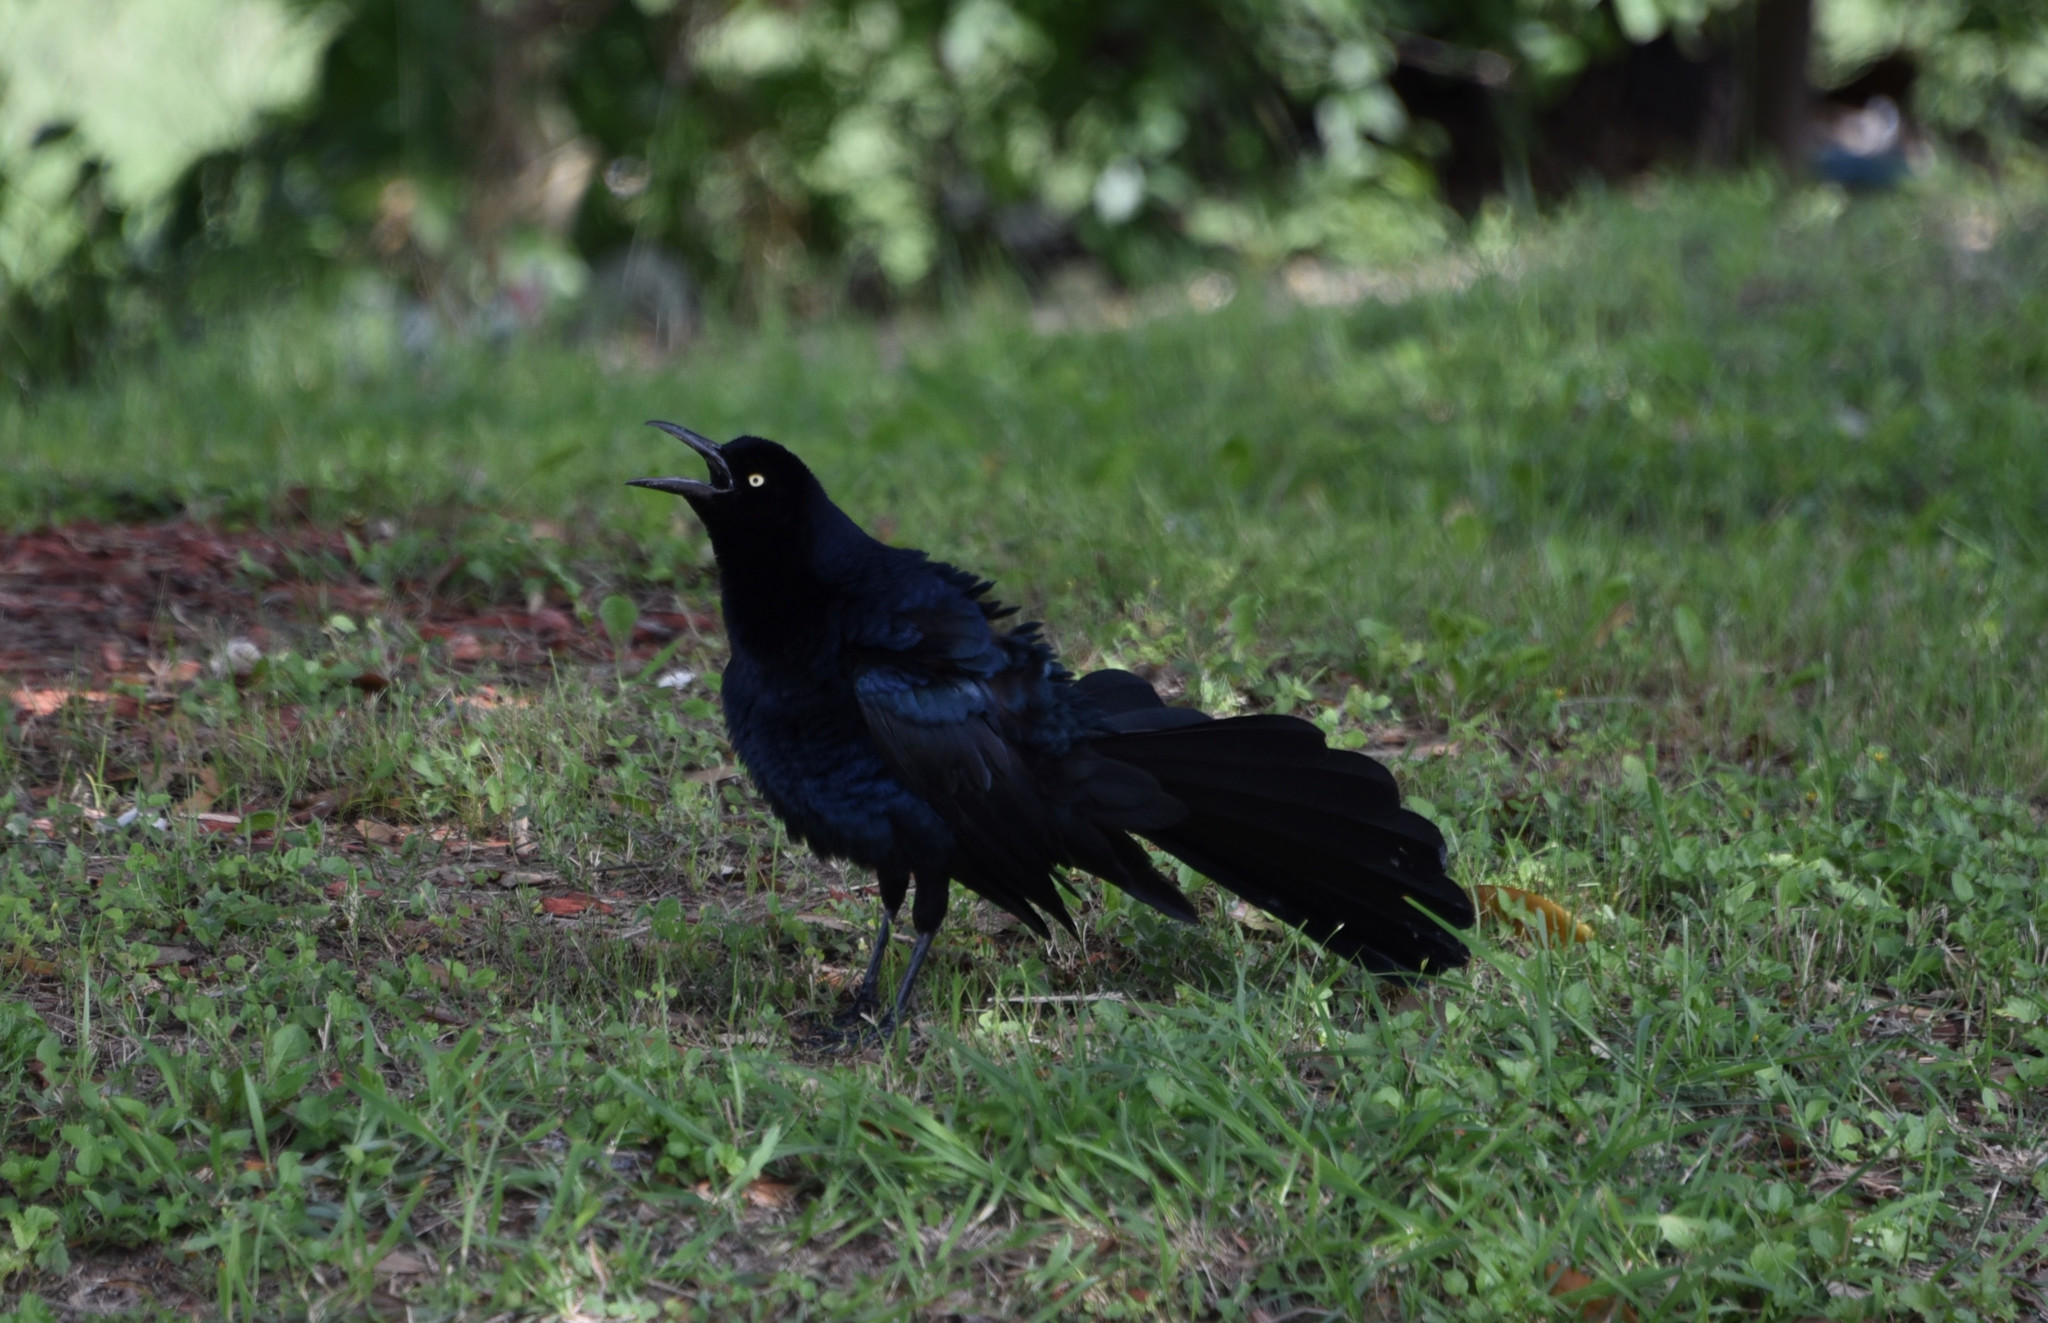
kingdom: Animalia
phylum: Chordata
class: Aves
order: Passeriformes
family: Icteridae
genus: Quiscalus
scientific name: Quiscalus mexicanus
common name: Great-tailed grackle
